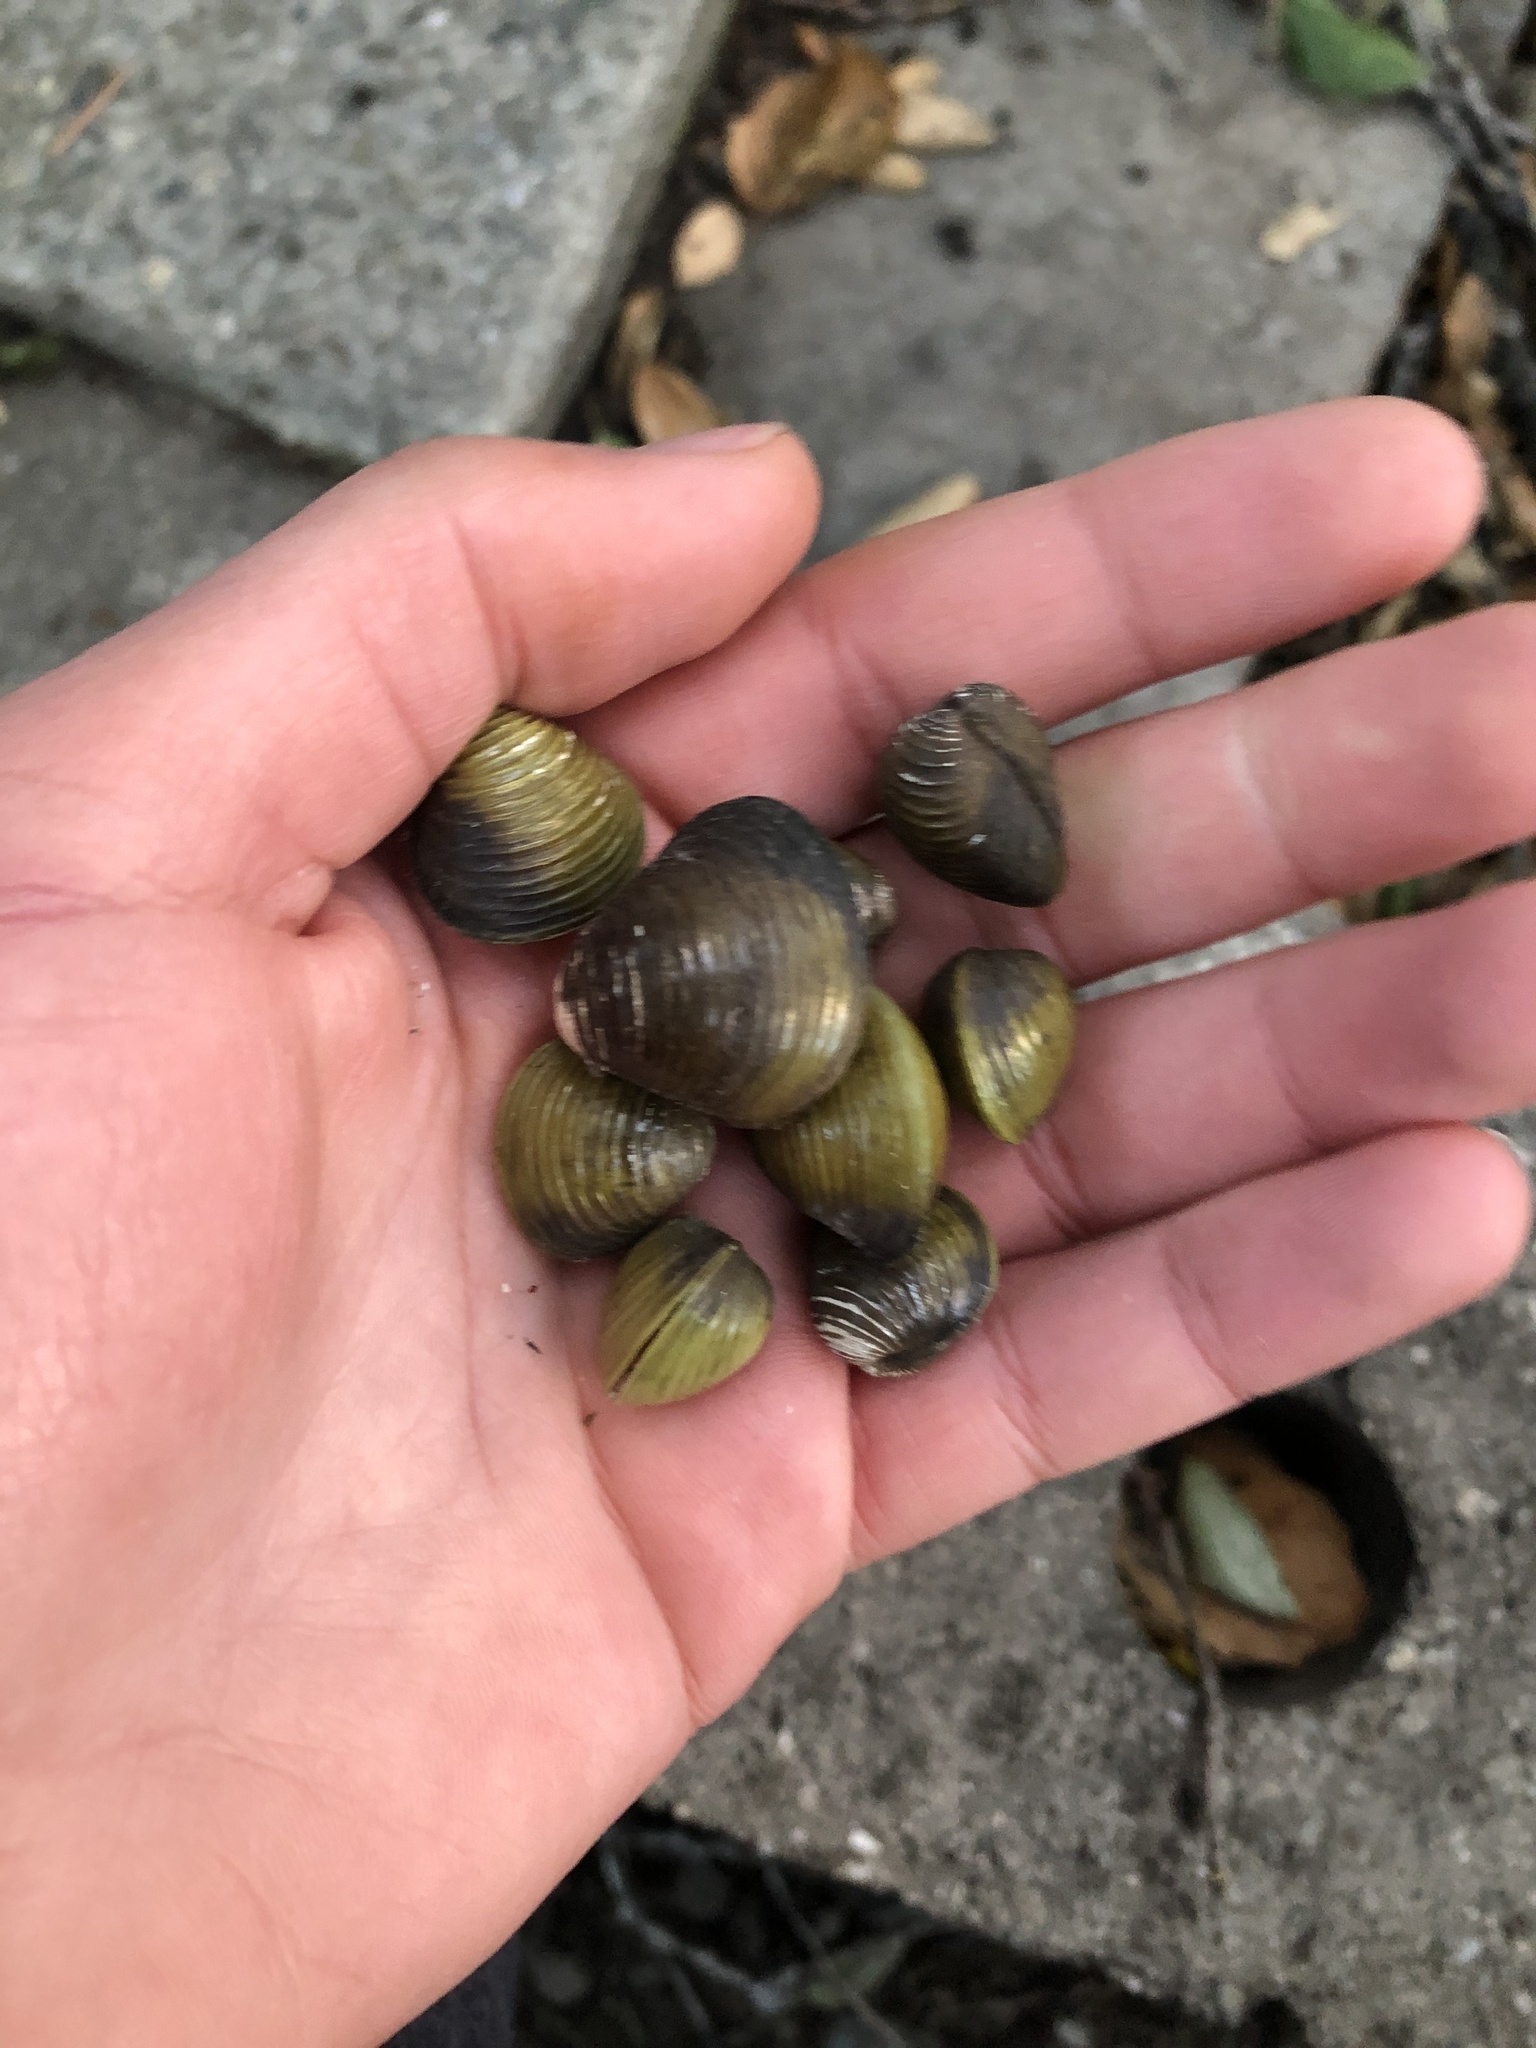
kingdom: Animalia
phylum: Mollusca
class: Bivalvia
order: Venerida
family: Cyrenidae
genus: Corbicula
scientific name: Corbicula fluminea
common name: Asian clam
